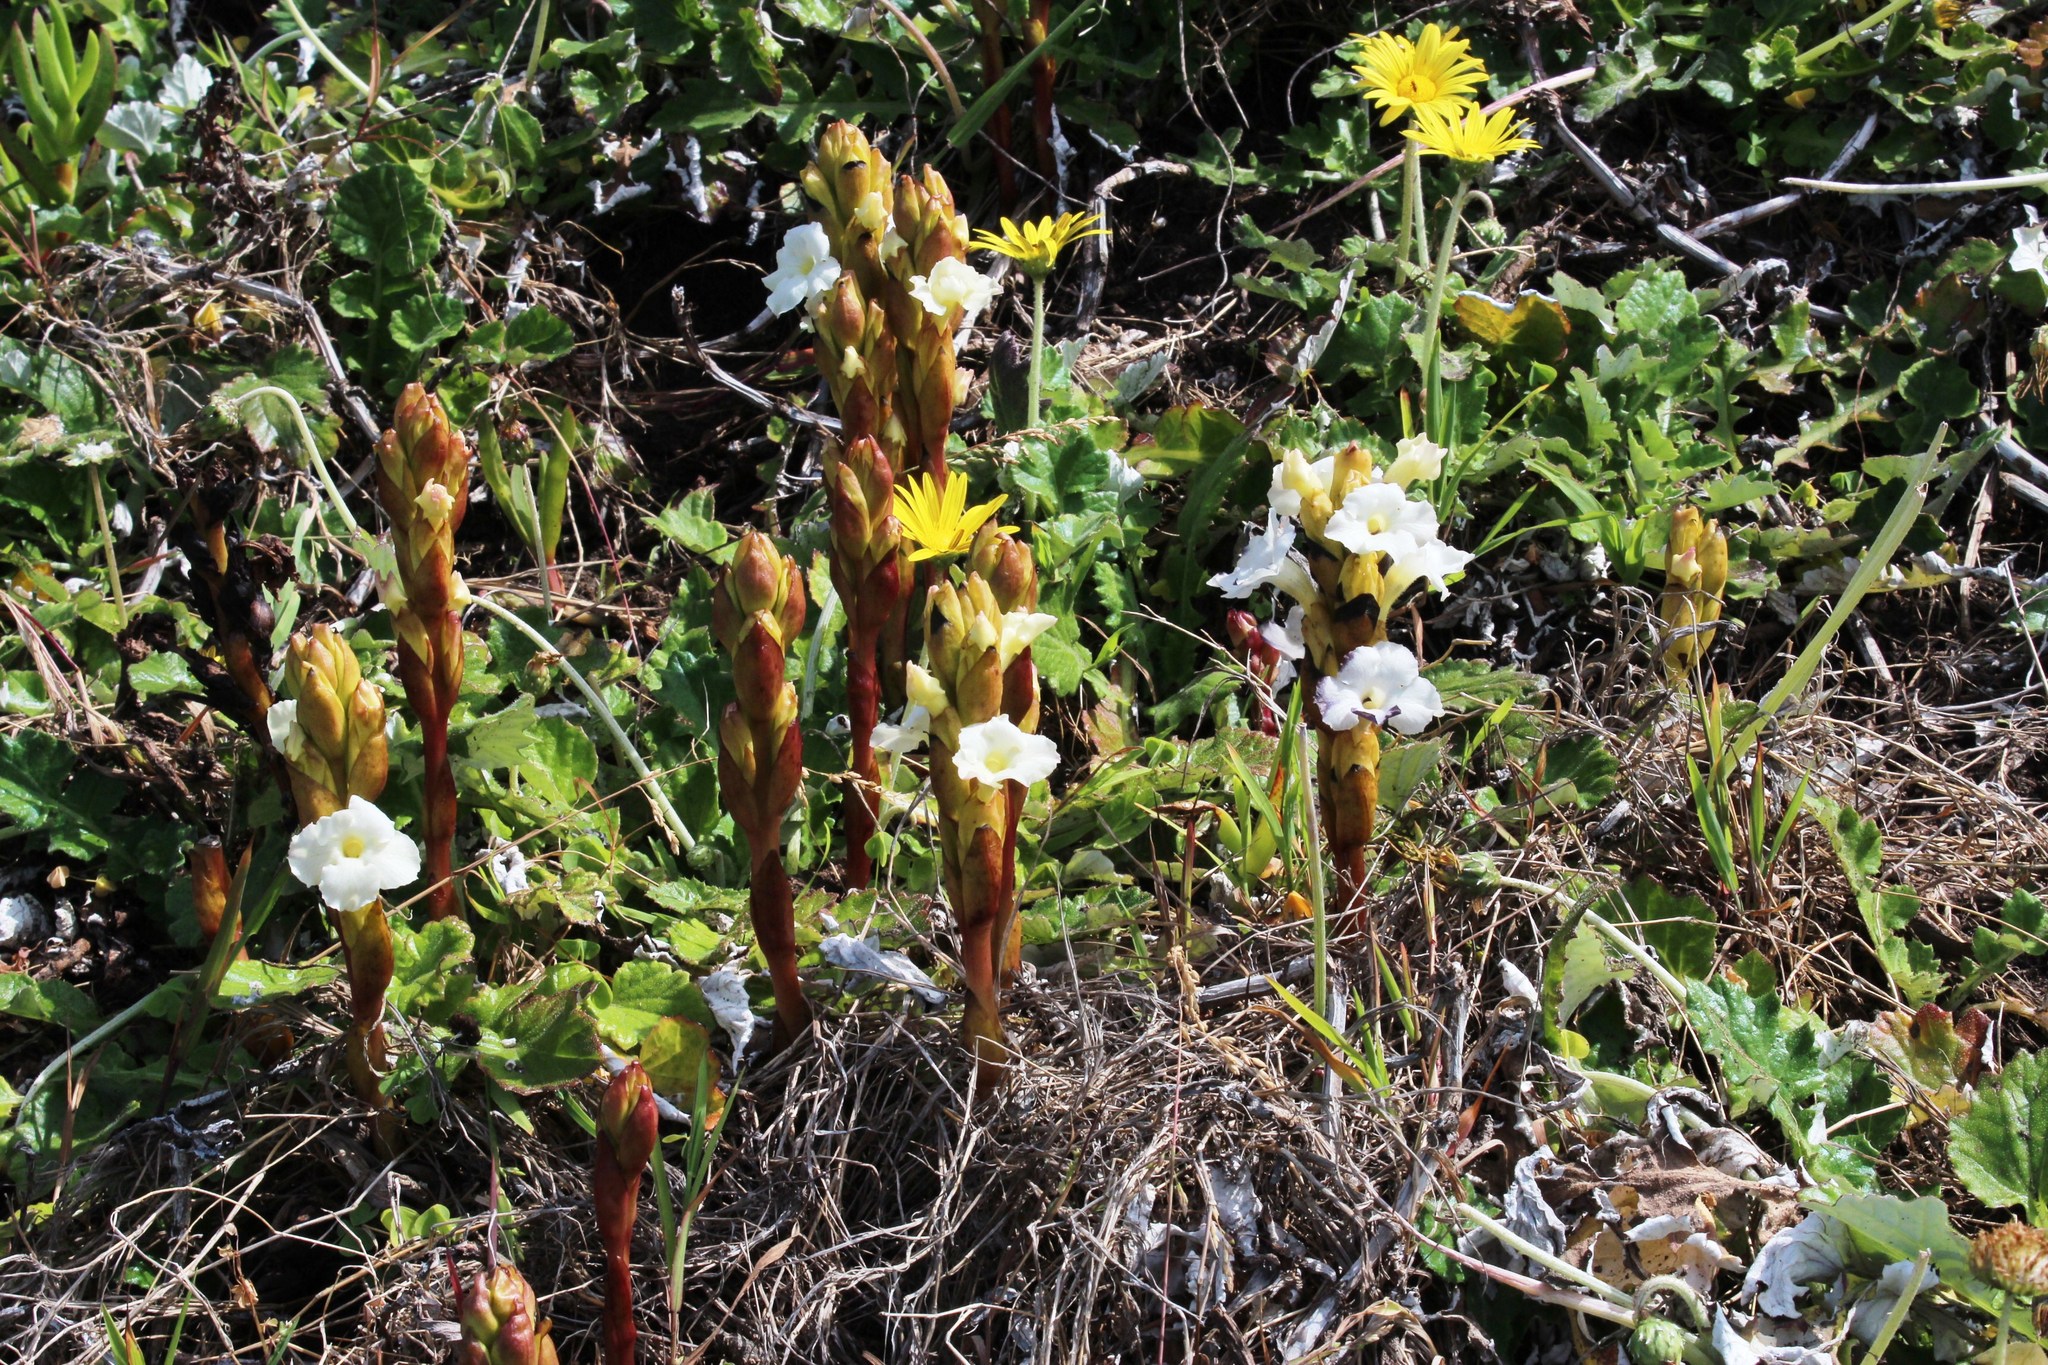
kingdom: Plantae
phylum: Tracheophyta
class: Magnoliopsida
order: Lamiales
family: Orobanchaceae
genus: Harveya
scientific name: Harveya capensis
